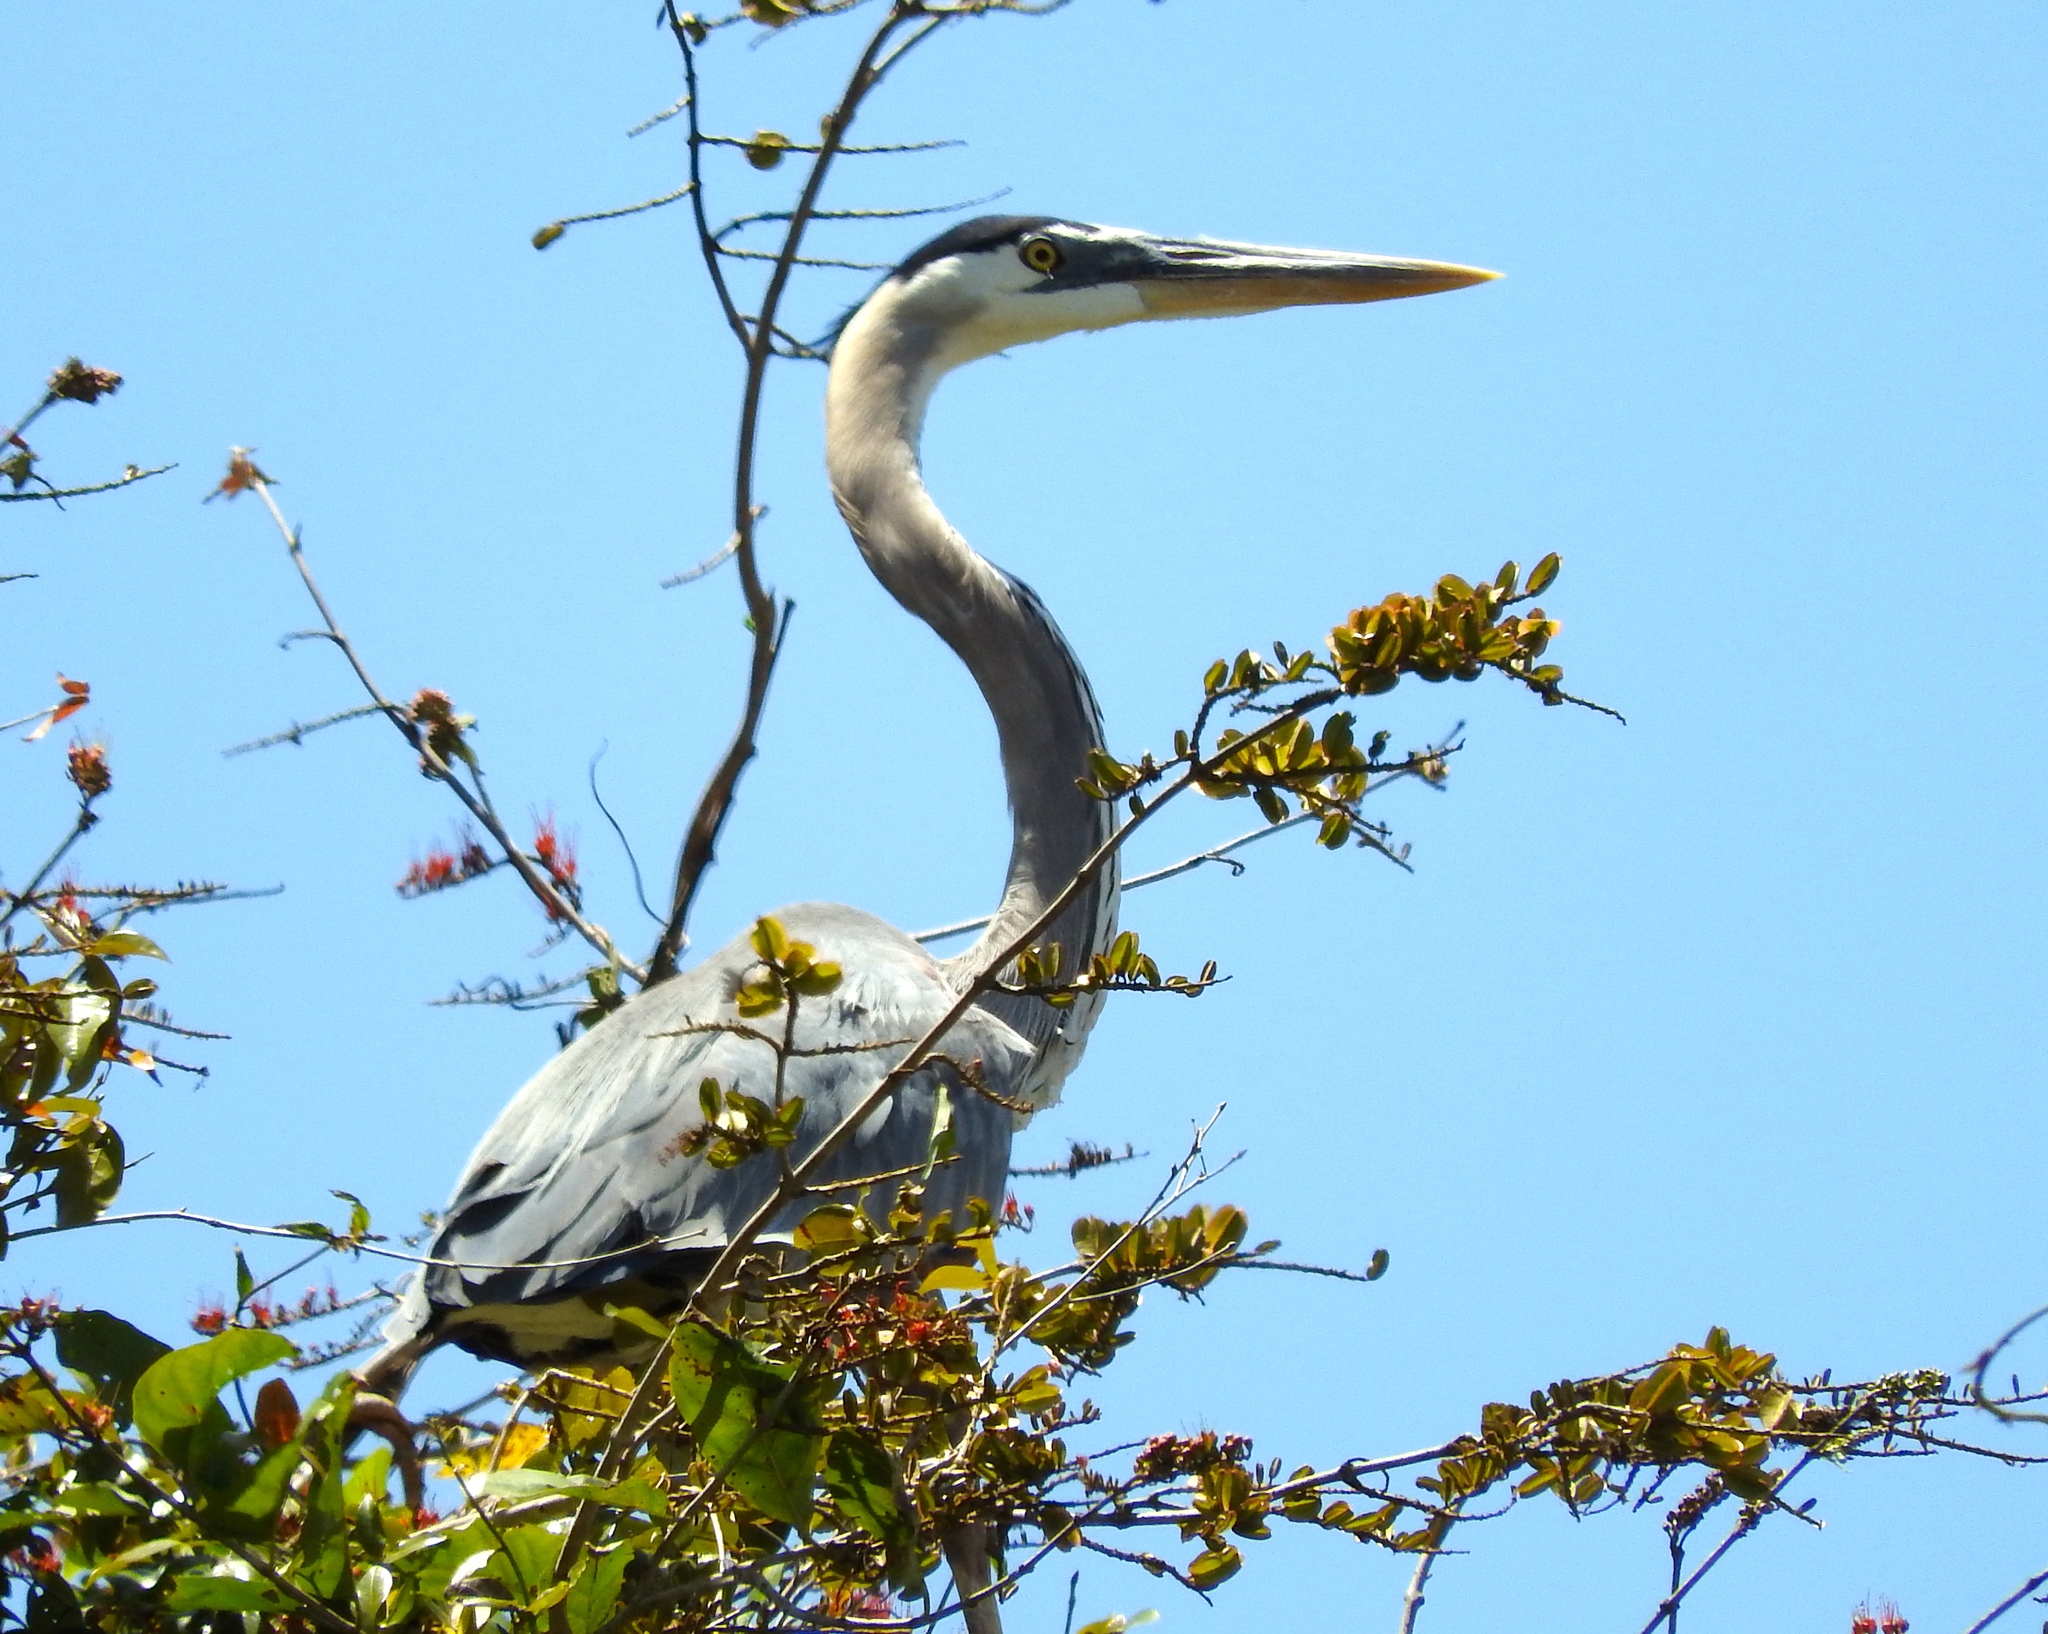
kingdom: Animalia
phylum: Chordata
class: Aves
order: Pelecaniformes
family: Ardeidae
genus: Ardea
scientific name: Ardea herodias
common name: Great blue heron
